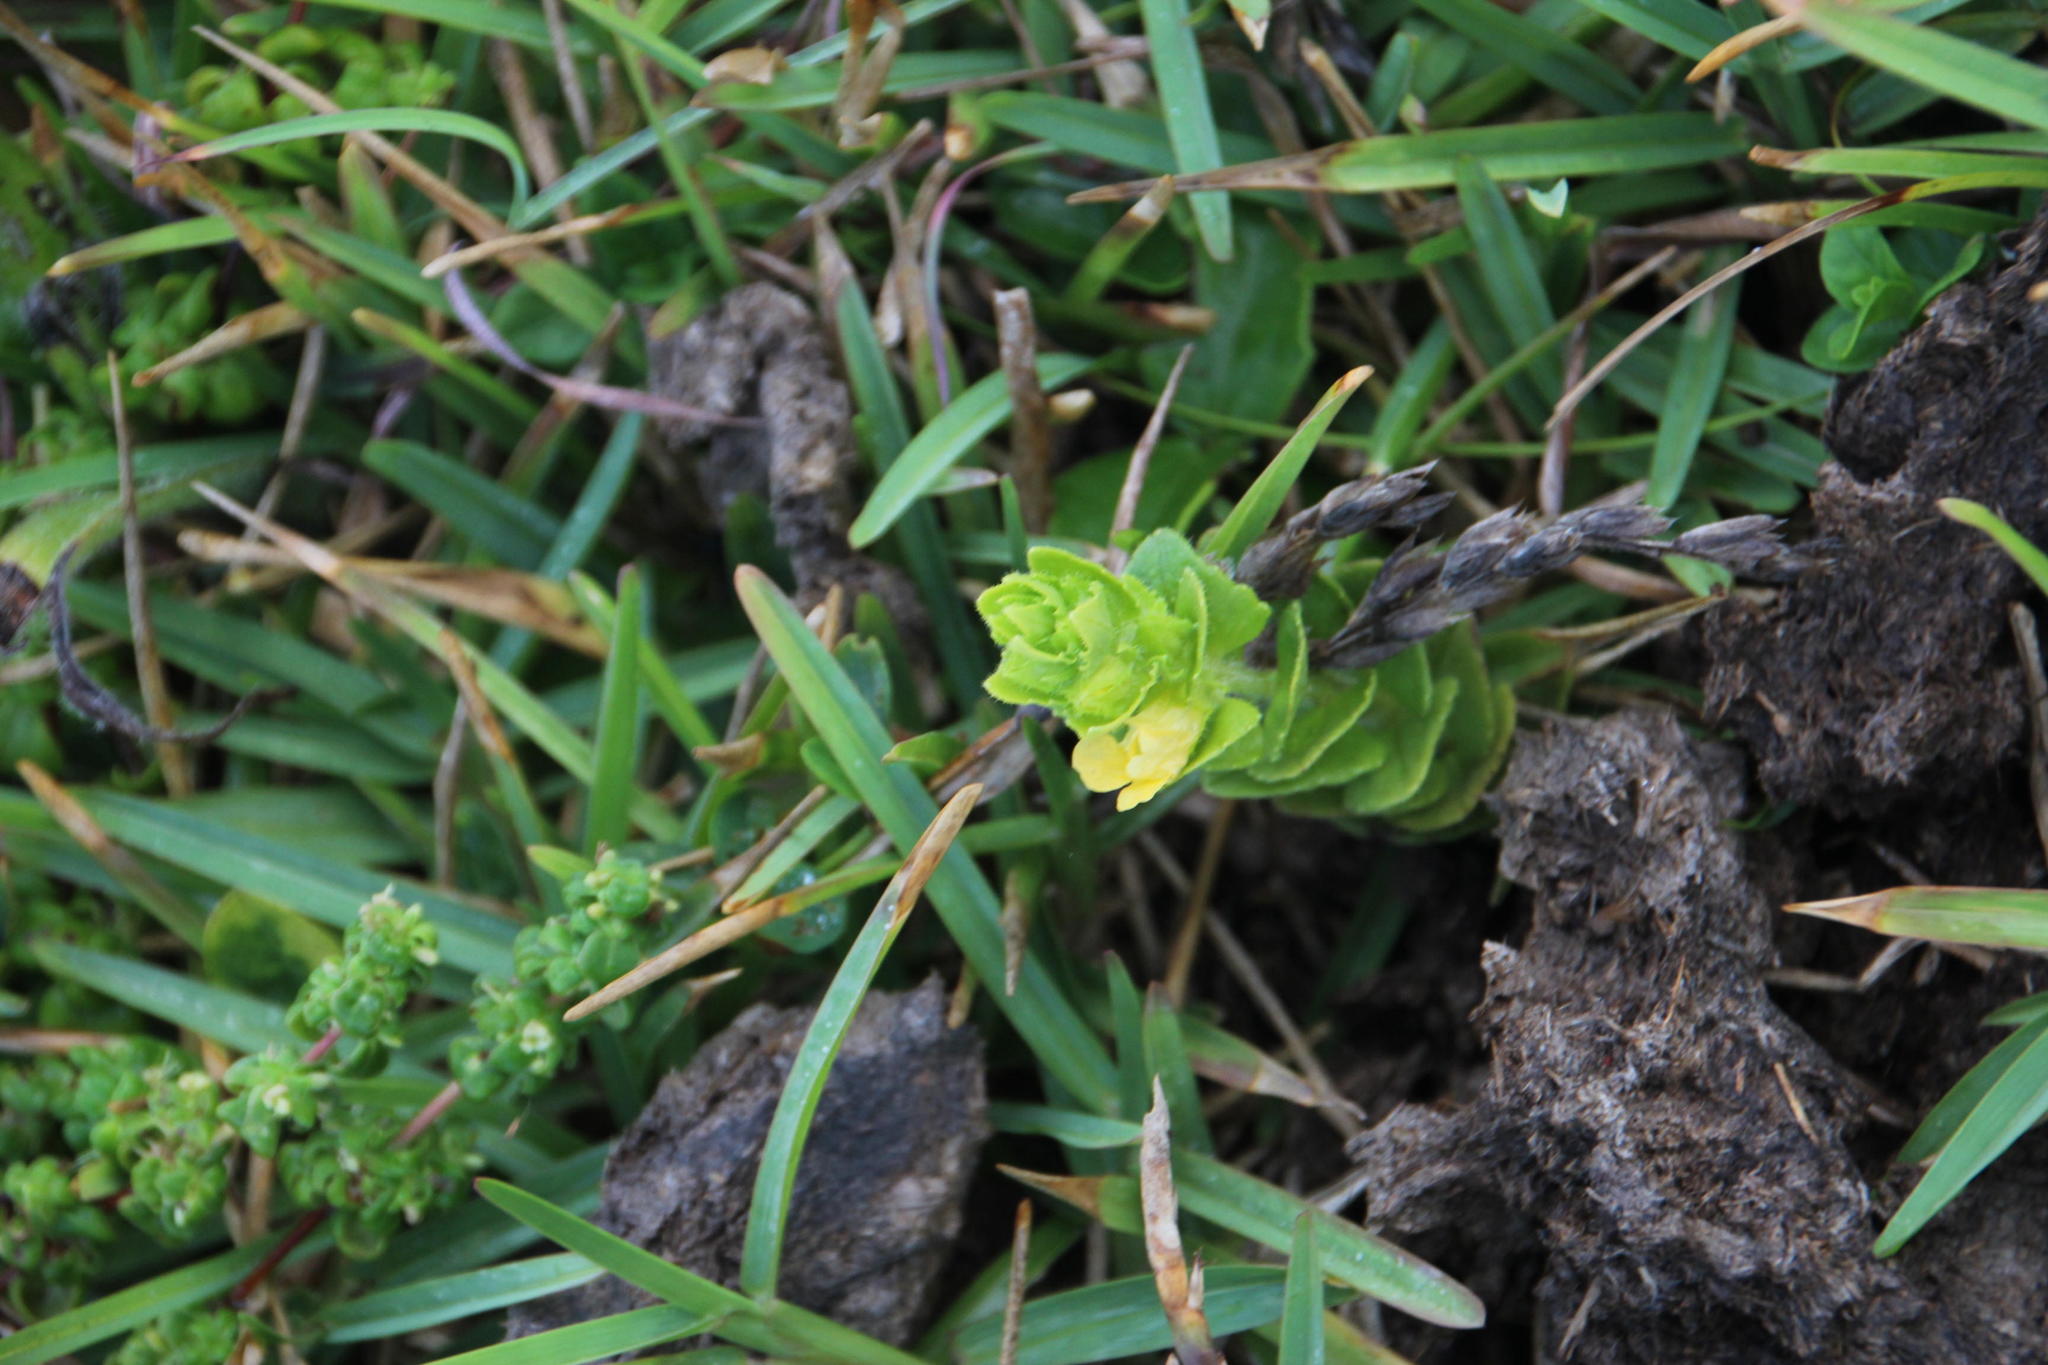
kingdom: Plantae
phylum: Tracheophyta
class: Magnoliopsida
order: Lamiales
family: Orobanchaceae
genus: Alectra
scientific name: Alectra sessiliflora
